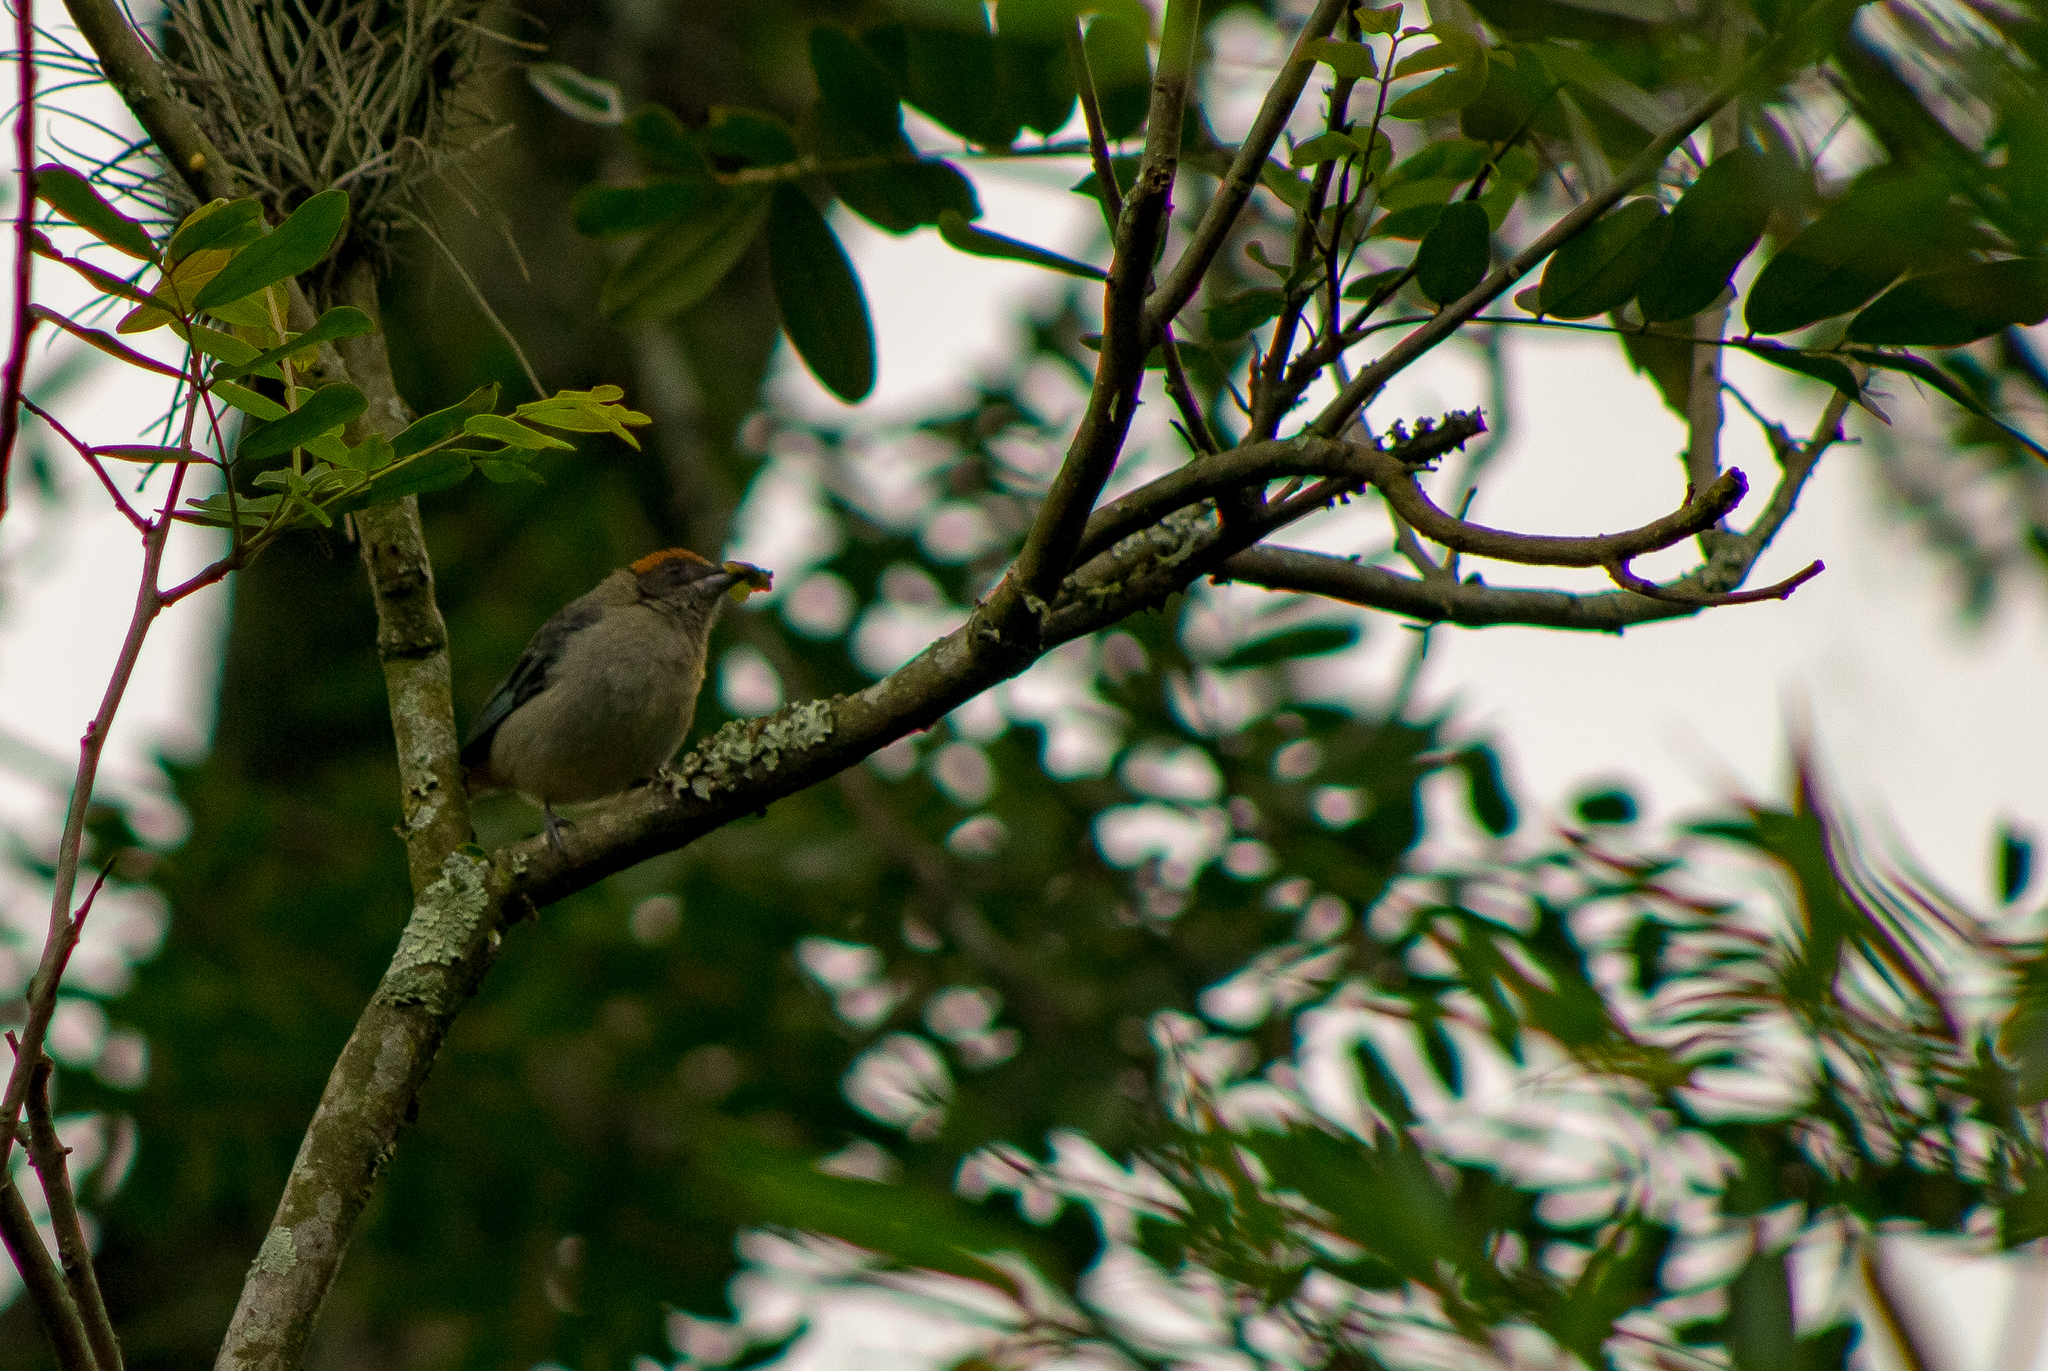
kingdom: Animalia
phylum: Chordata
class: Aves
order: Passeriformes
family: Thraupidae
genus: Stilpnia
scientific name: Stilpnia vitriolina
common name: Scrub tanager
